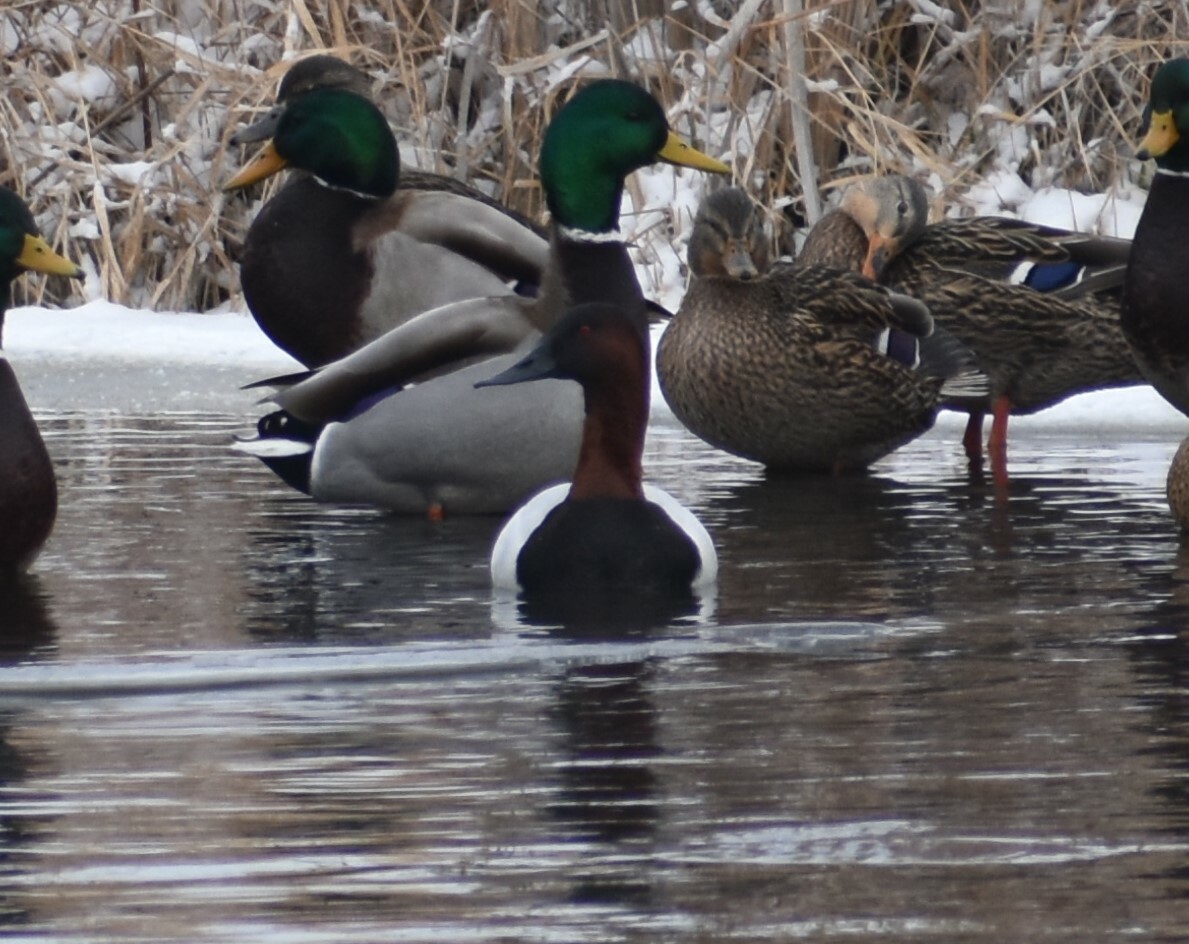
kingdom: Animalia
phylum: Chordata
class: Aves
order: Anseriformes
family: Anatidae
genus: Aythya
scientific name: Aythya valisineria
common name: Canvasback
